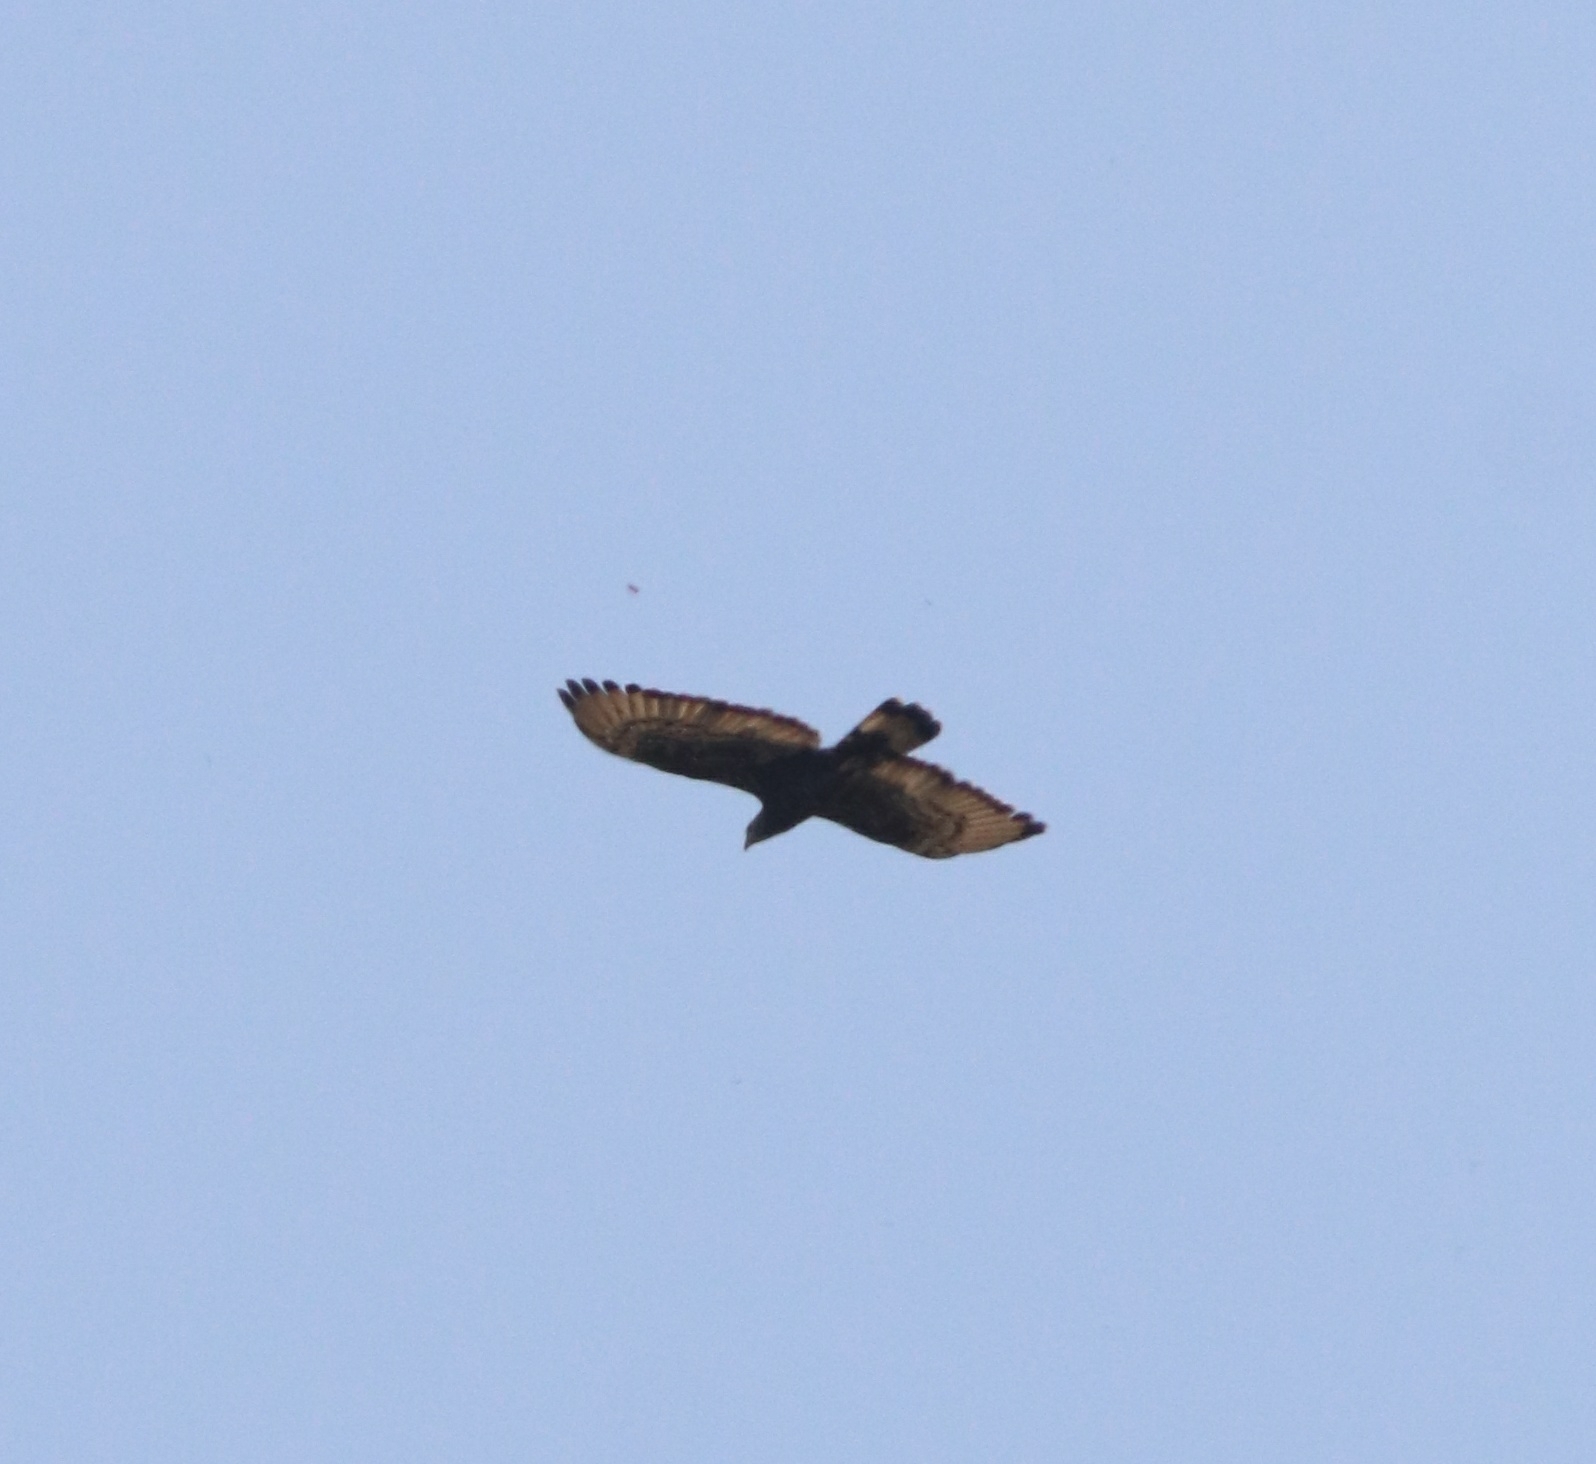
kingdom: Animalia
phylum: Chordata
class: Aves
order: Accipitriformes
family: Accipitridae
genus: Pernis
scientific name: Pernis ptilorhynchus
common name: Crested honey buzzard
